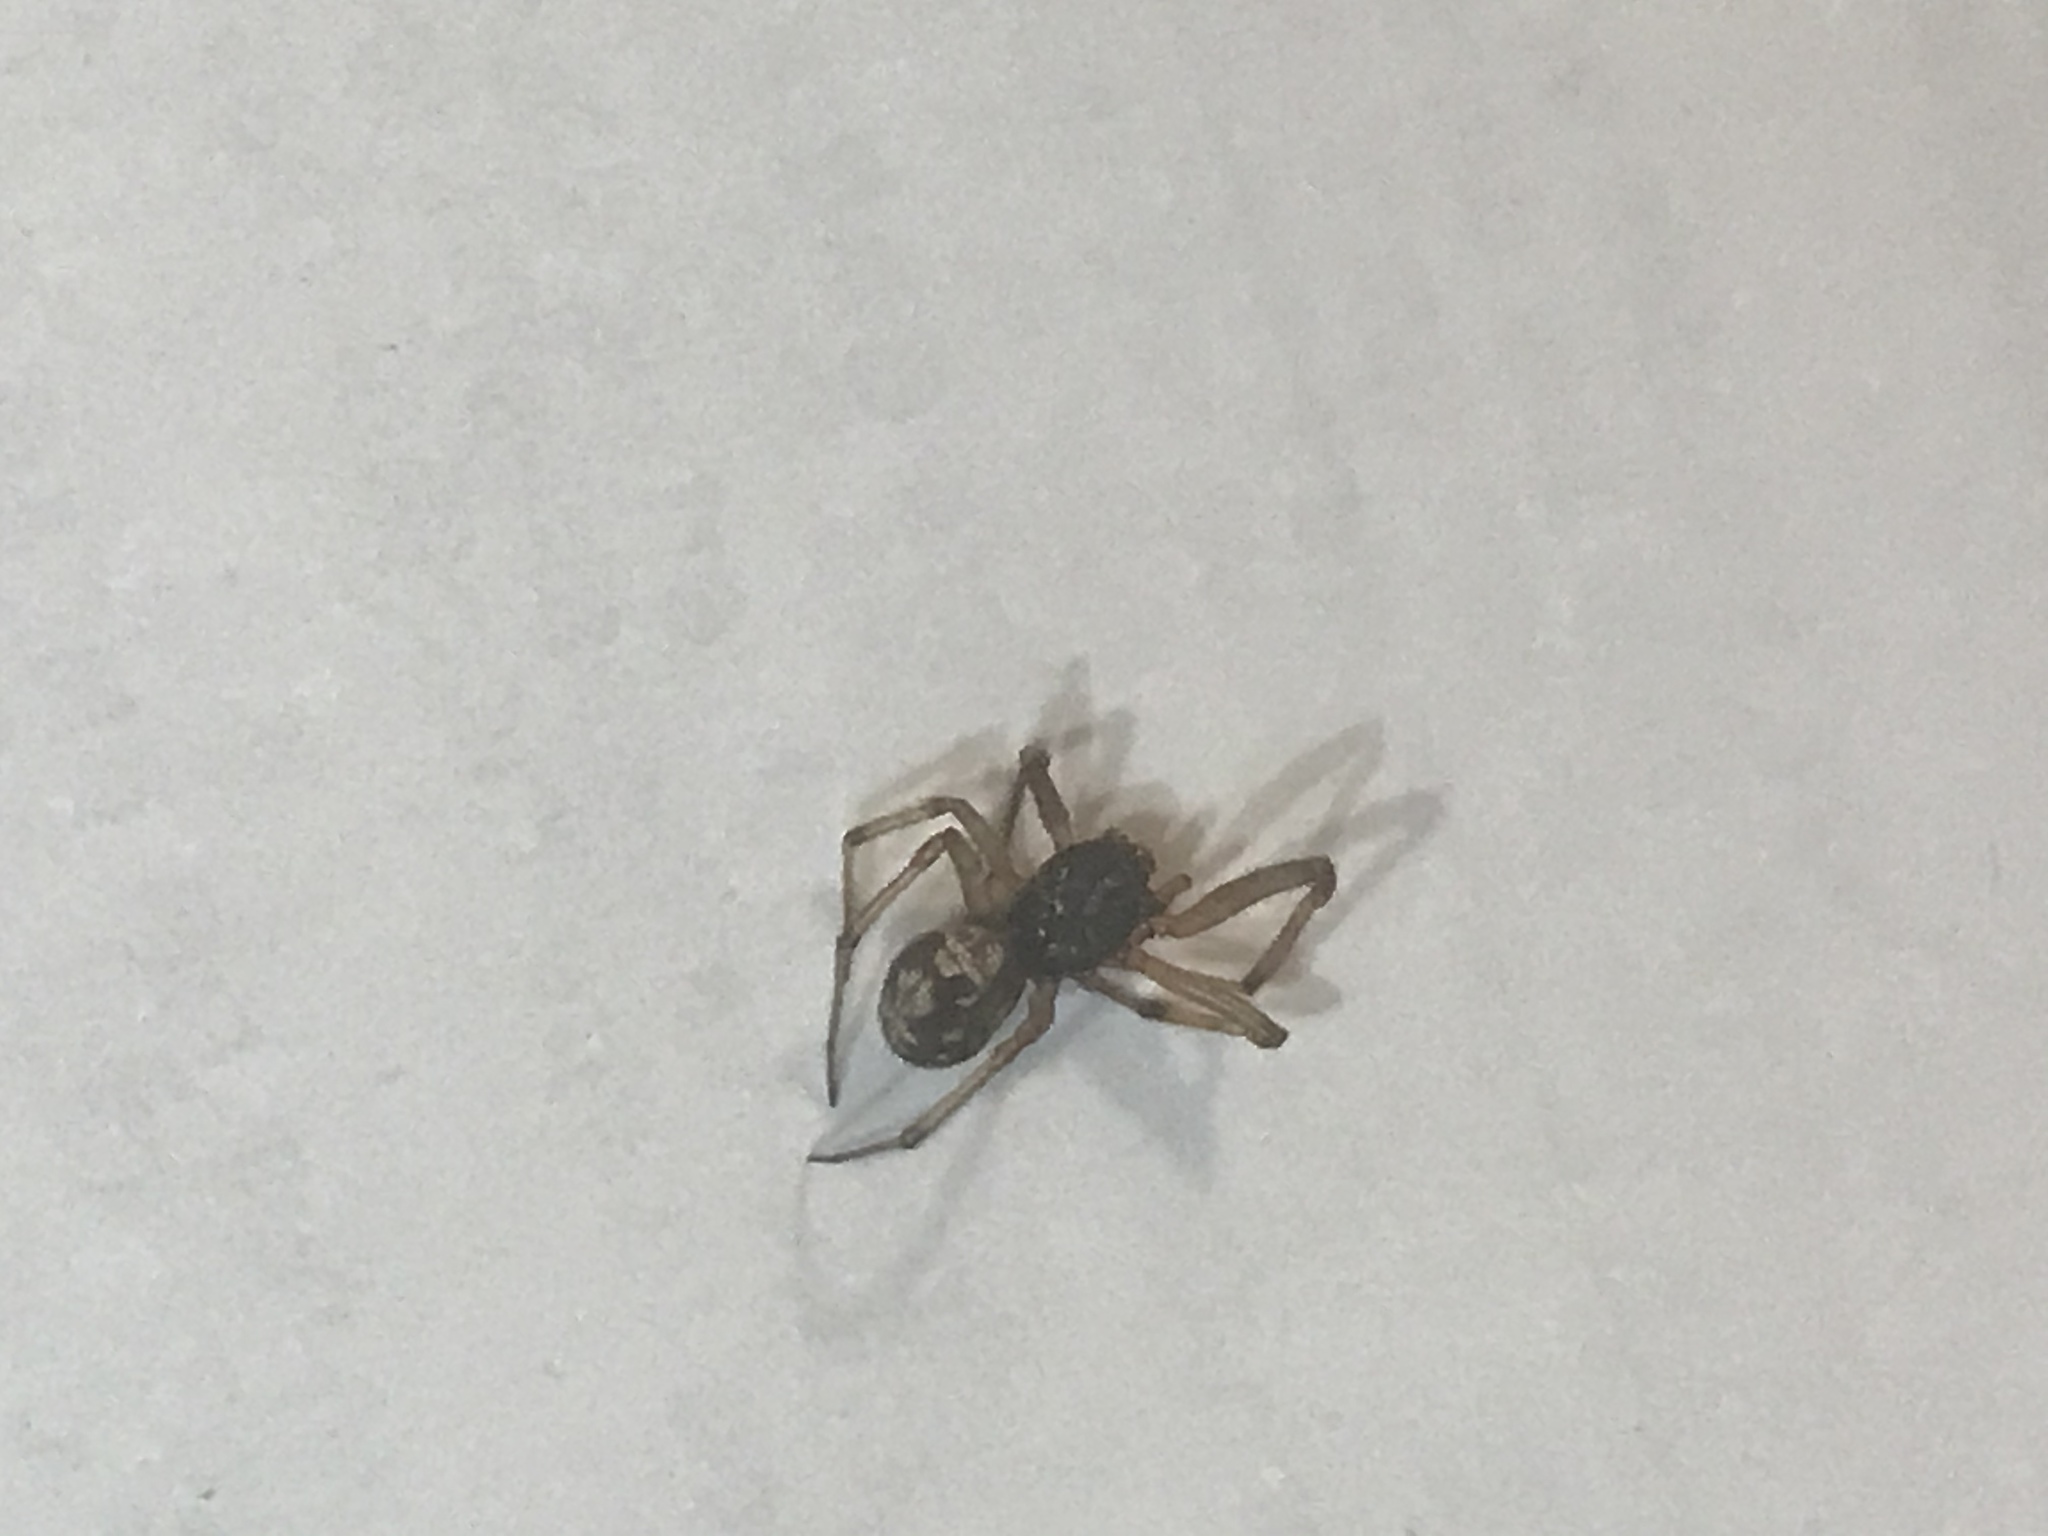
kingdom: Animalia
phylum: Arthropoda
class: Arachnida
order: Araneae
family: Theridiidae
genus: Steatoda
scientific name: Steatoda triangulosa
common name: Triangulate bud spider
